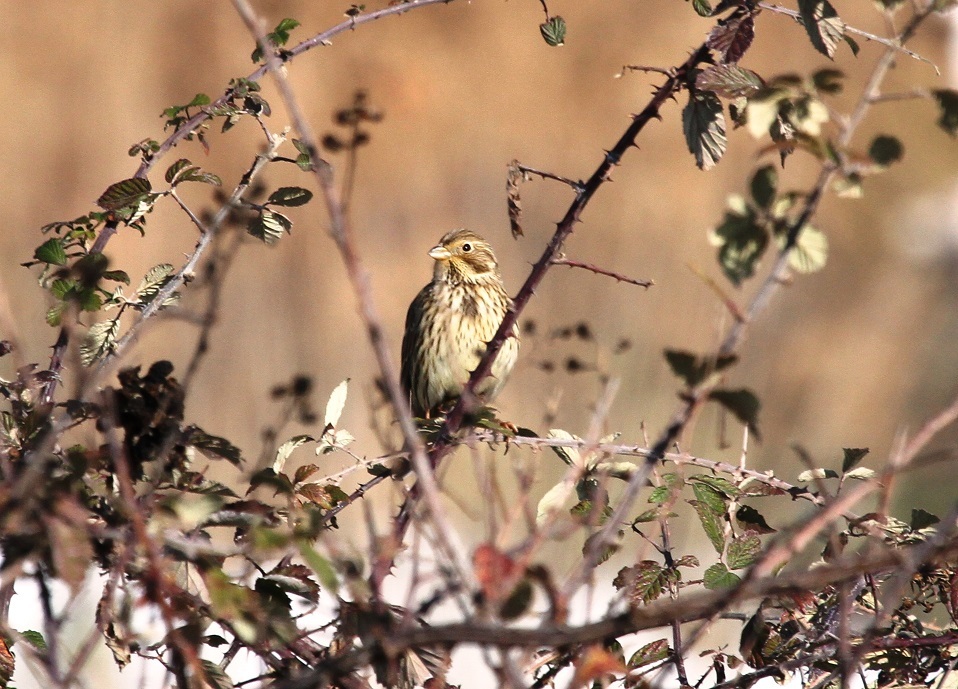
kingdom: Animalia
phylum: Chordata
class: Aves
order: Passeriformes
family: Emberizidae
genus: Emberiza
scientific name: Emberiza calandra
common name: Corn bunting
